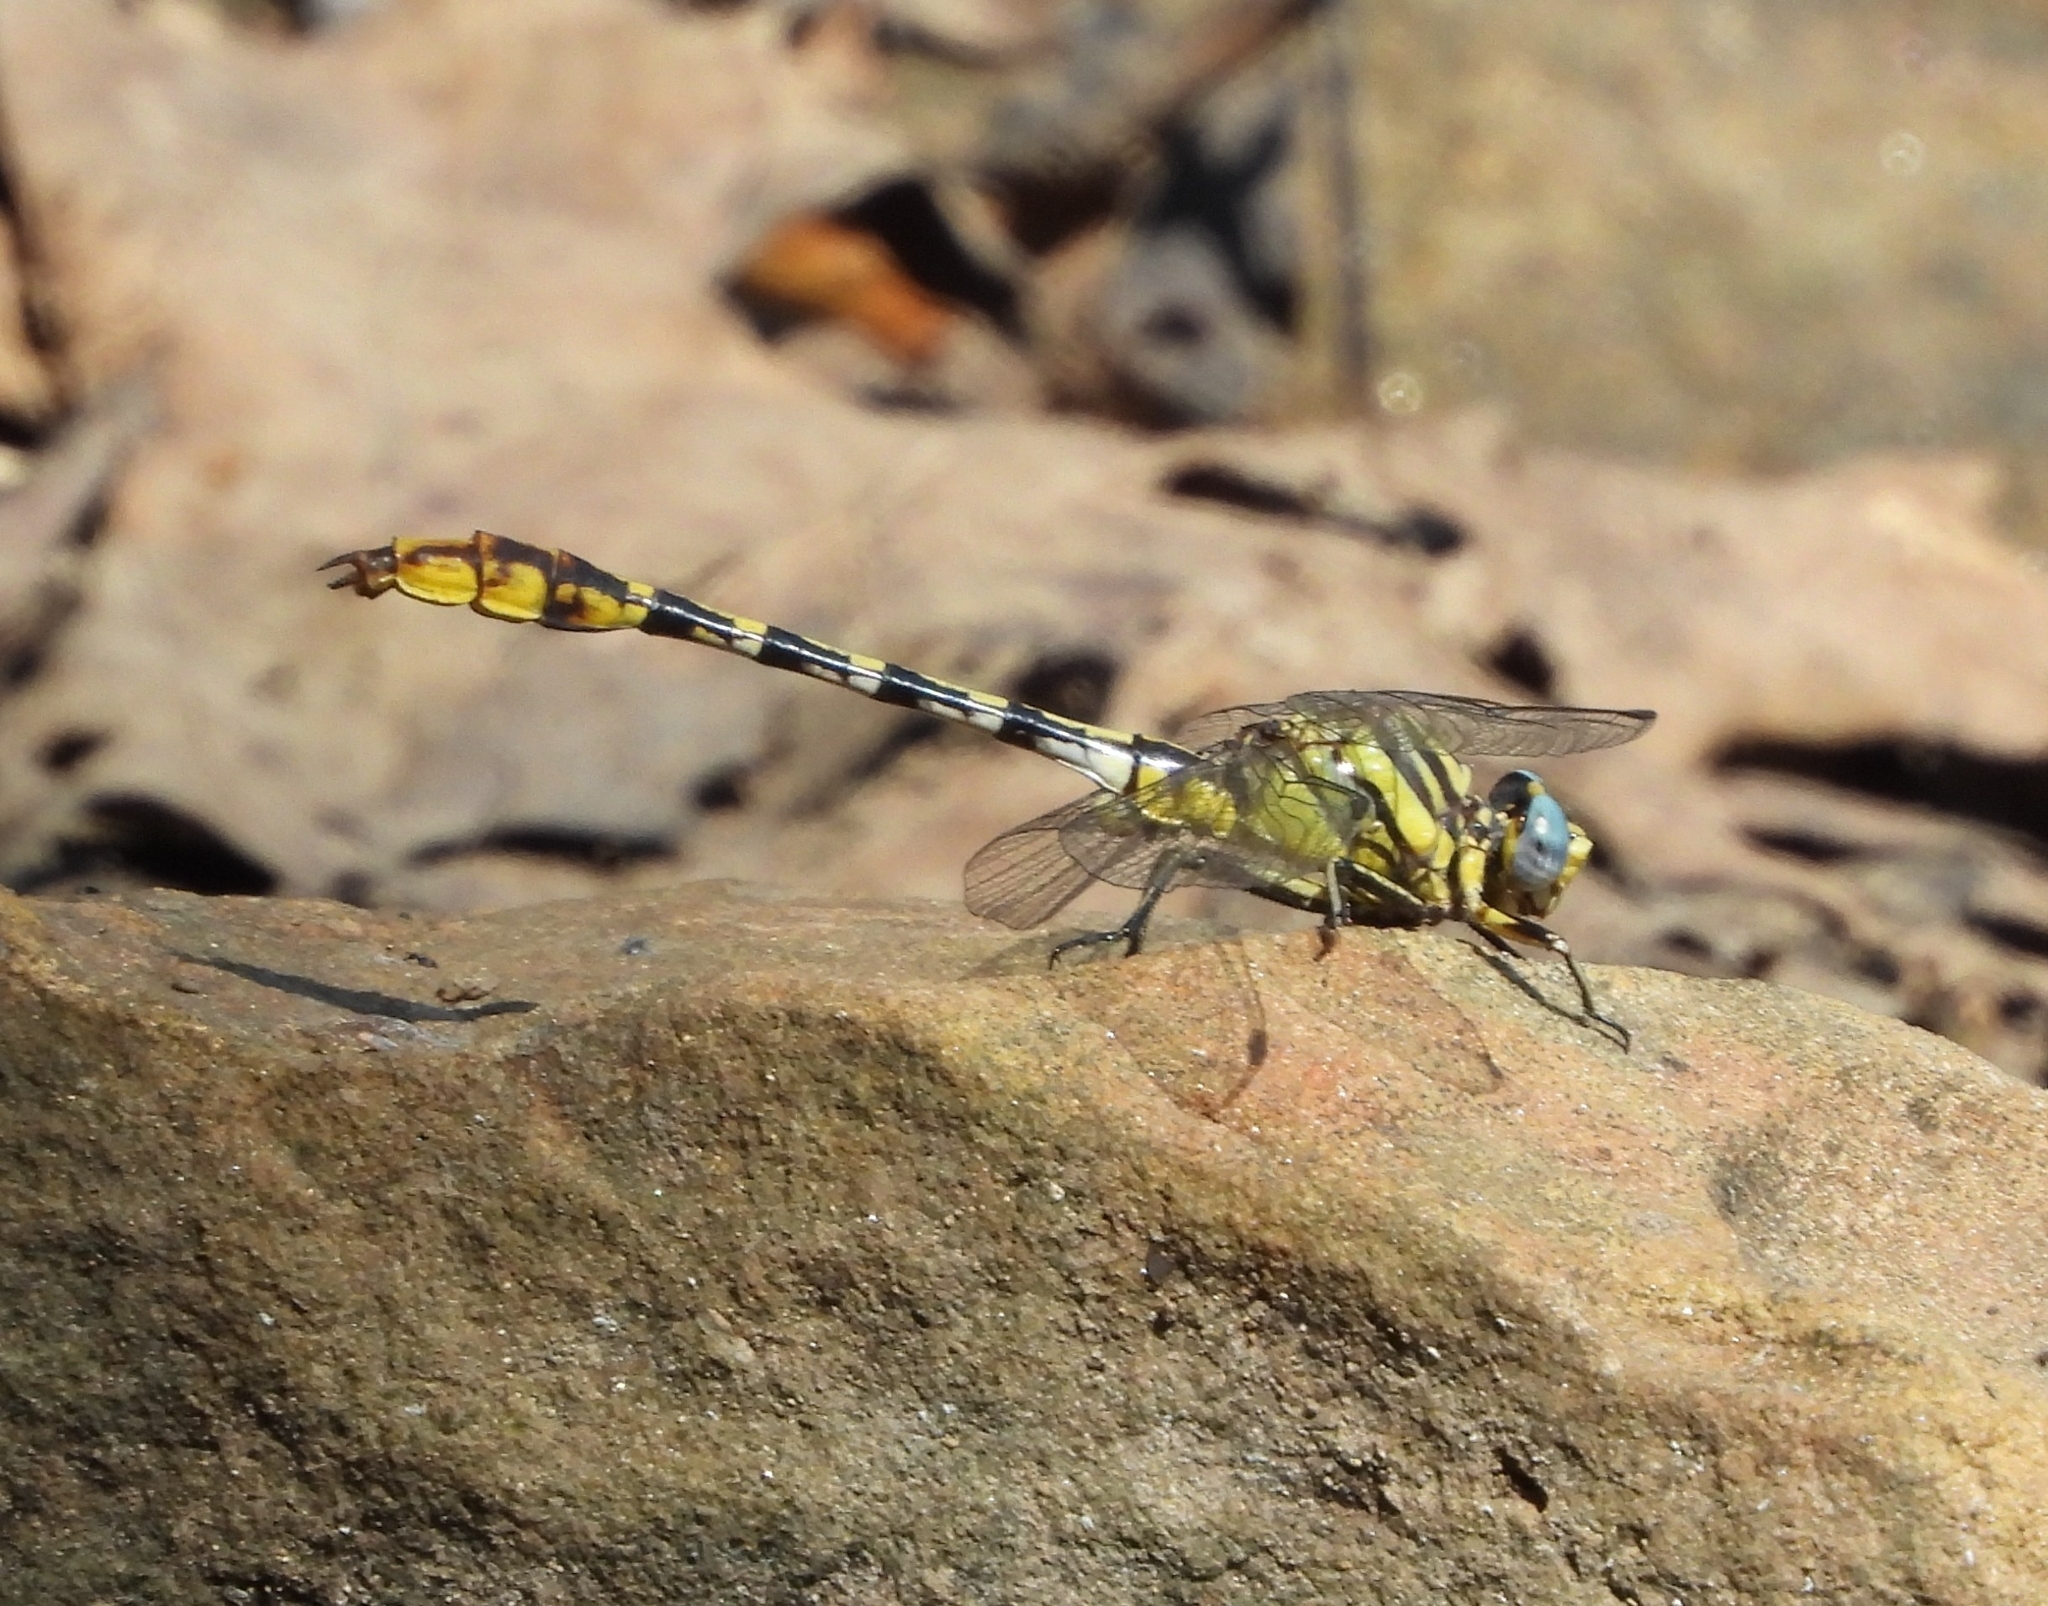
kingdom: Animalia
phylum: Arthropoda
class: Insecta
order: Odonata
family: Gomphidae
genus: Phanogomphus
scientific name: Phanogomphus militaris
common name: Sulphur-tipped clubtail
